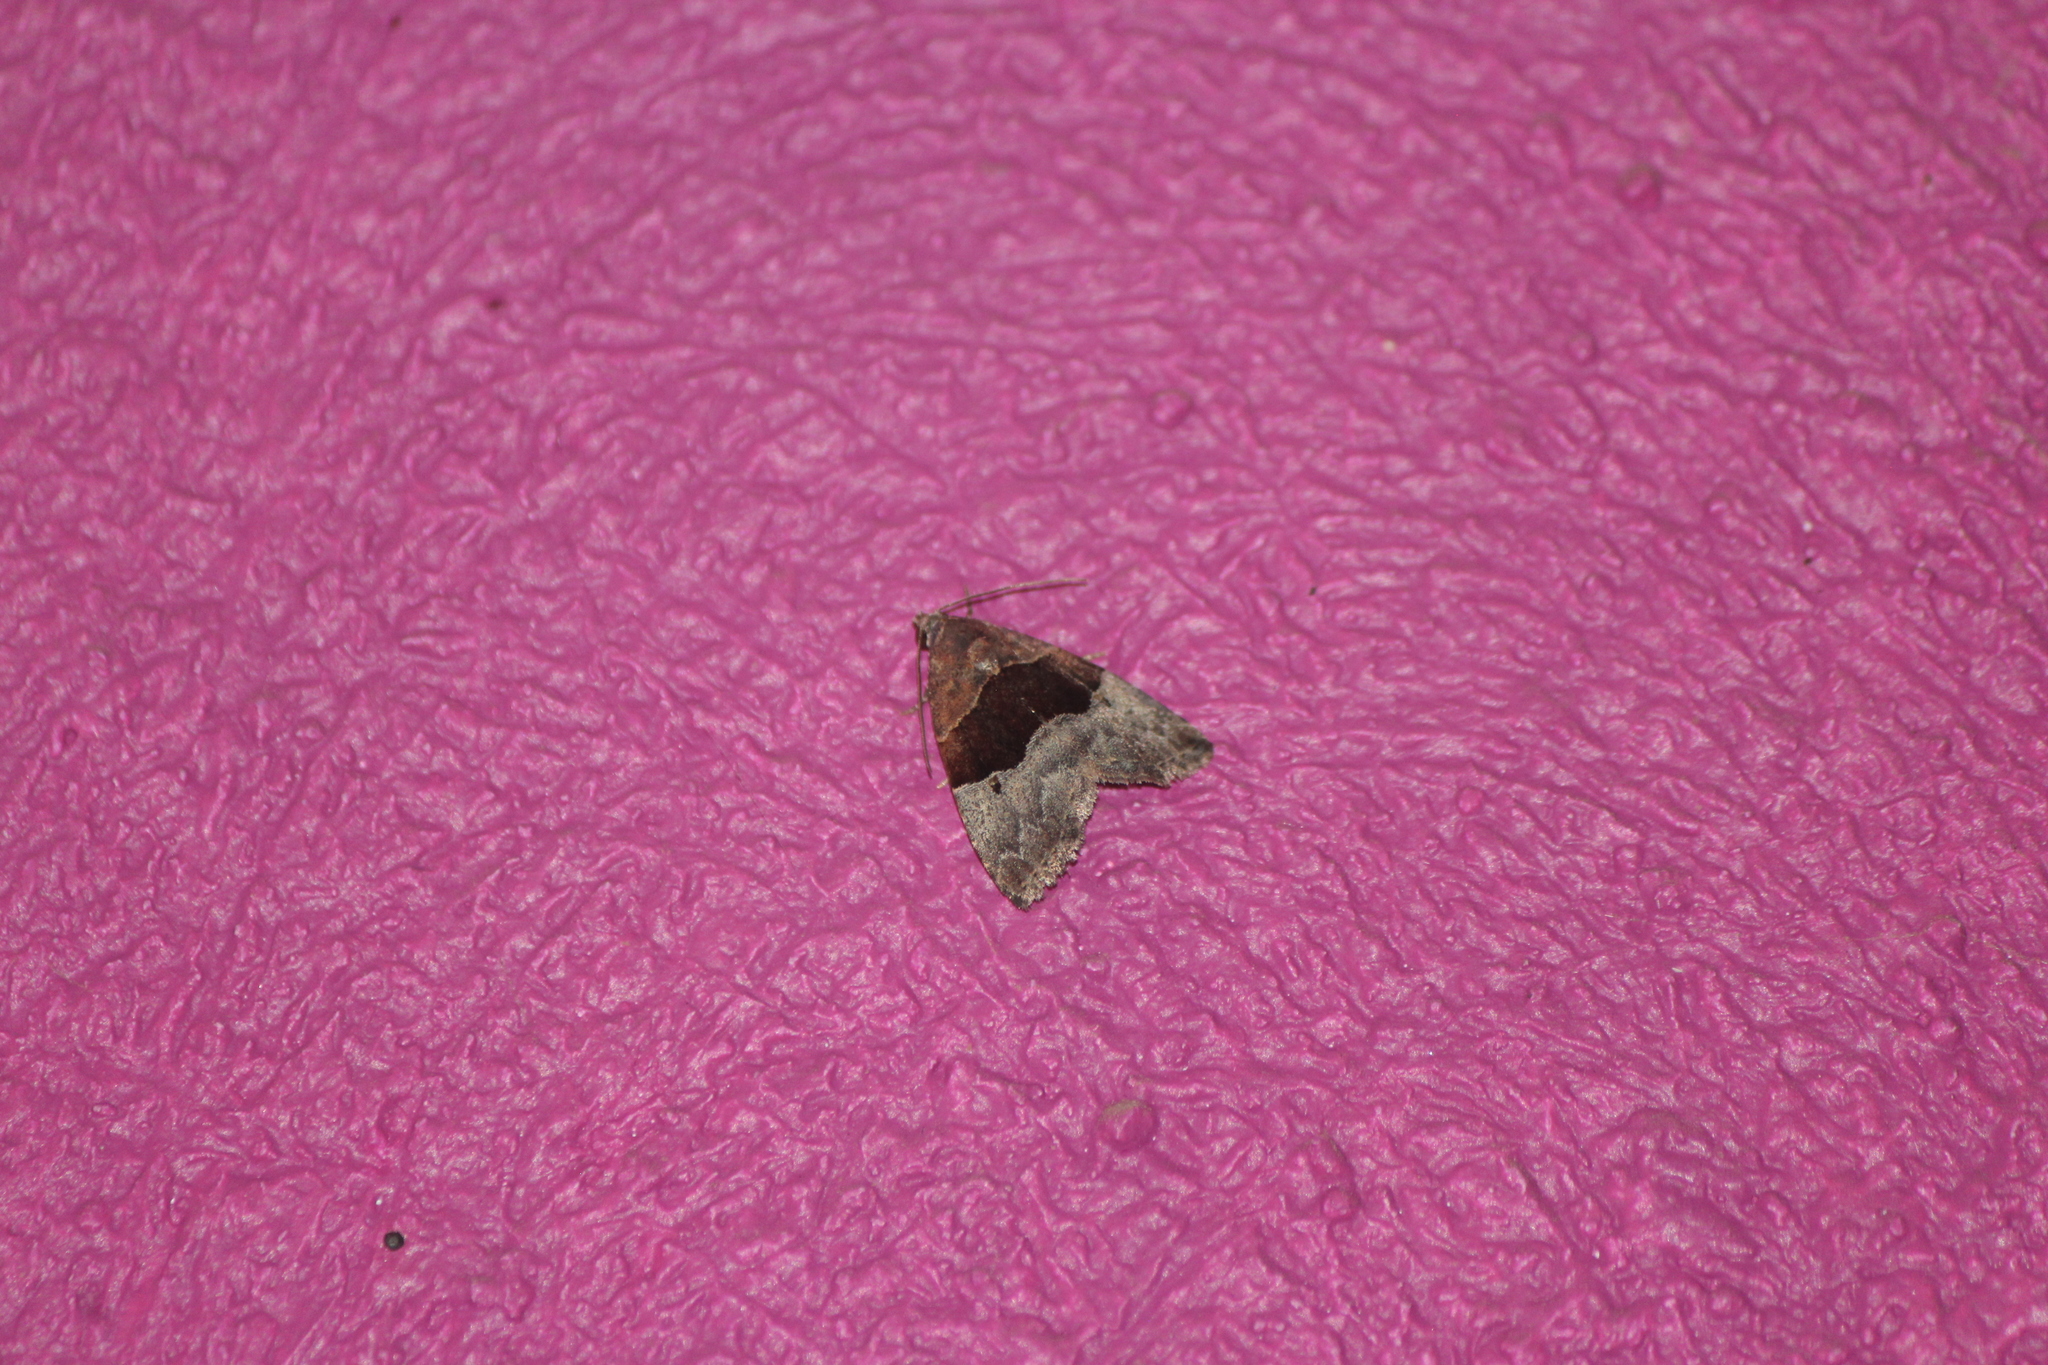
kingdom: Animalia
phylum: Arthropoda
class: Insecta
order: Lepidoptera
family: Noctuidae
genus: Cobubatha
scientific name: Cobubatha hippotes
